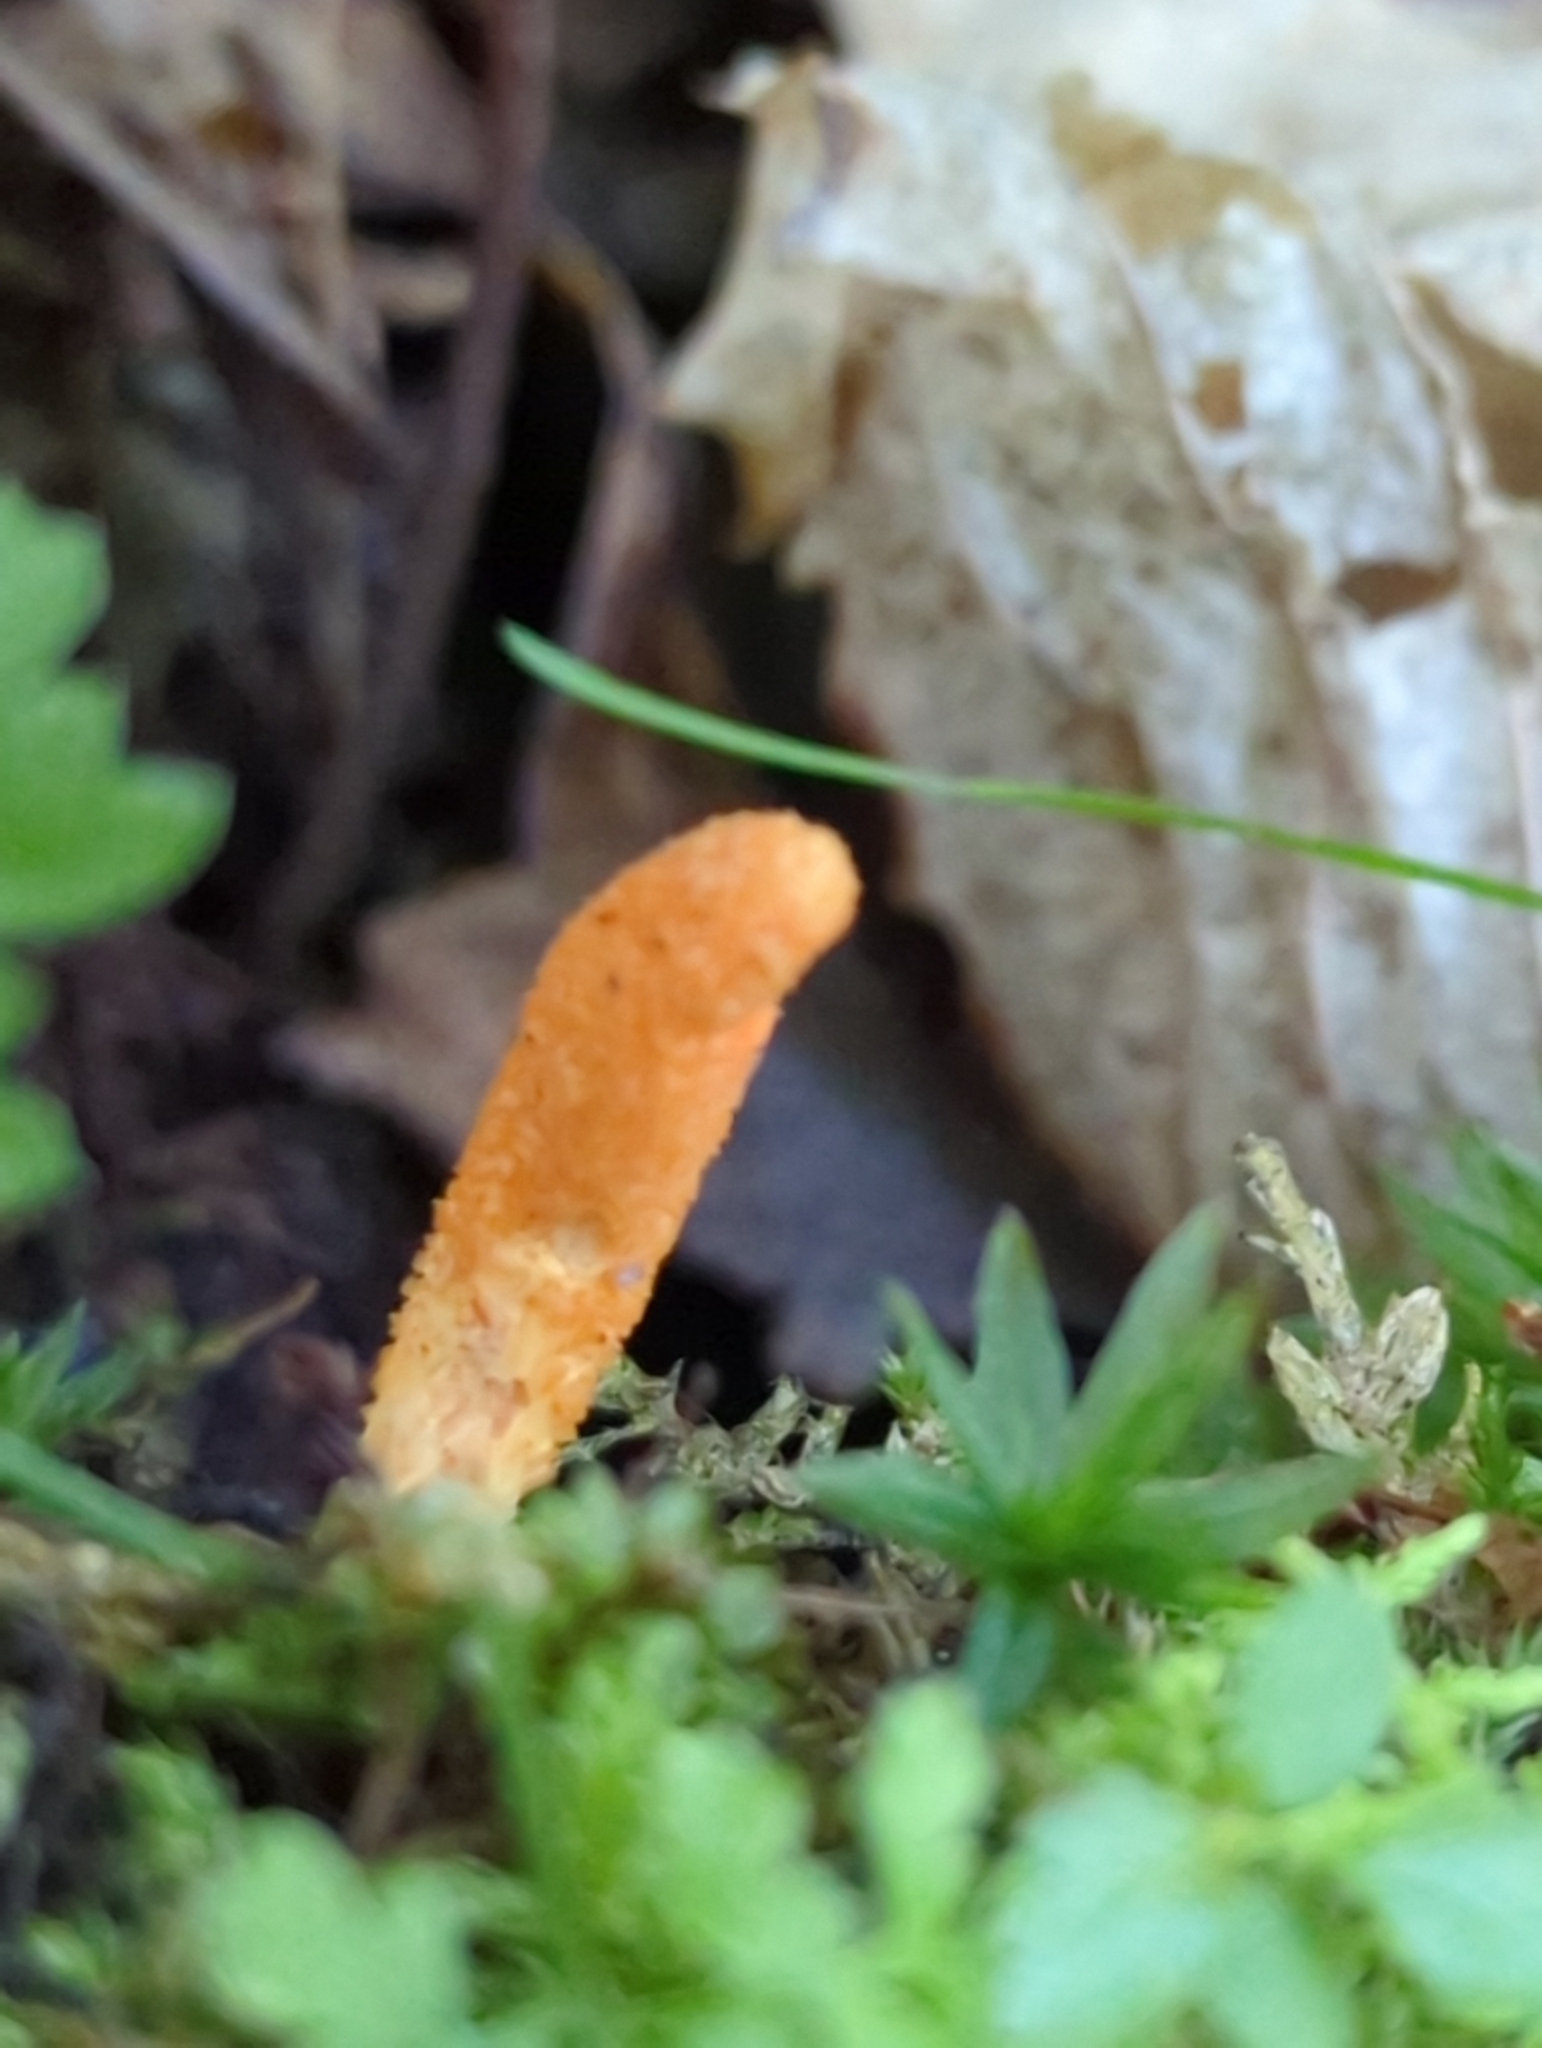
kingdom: Fungi
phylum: Ascomycota
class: Sordariomycetes
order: Hypocreales
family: Cordycipitaceae
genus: Cordyceps
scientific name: Cordyceps militaris
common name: Scarlet caterpillar fungus
